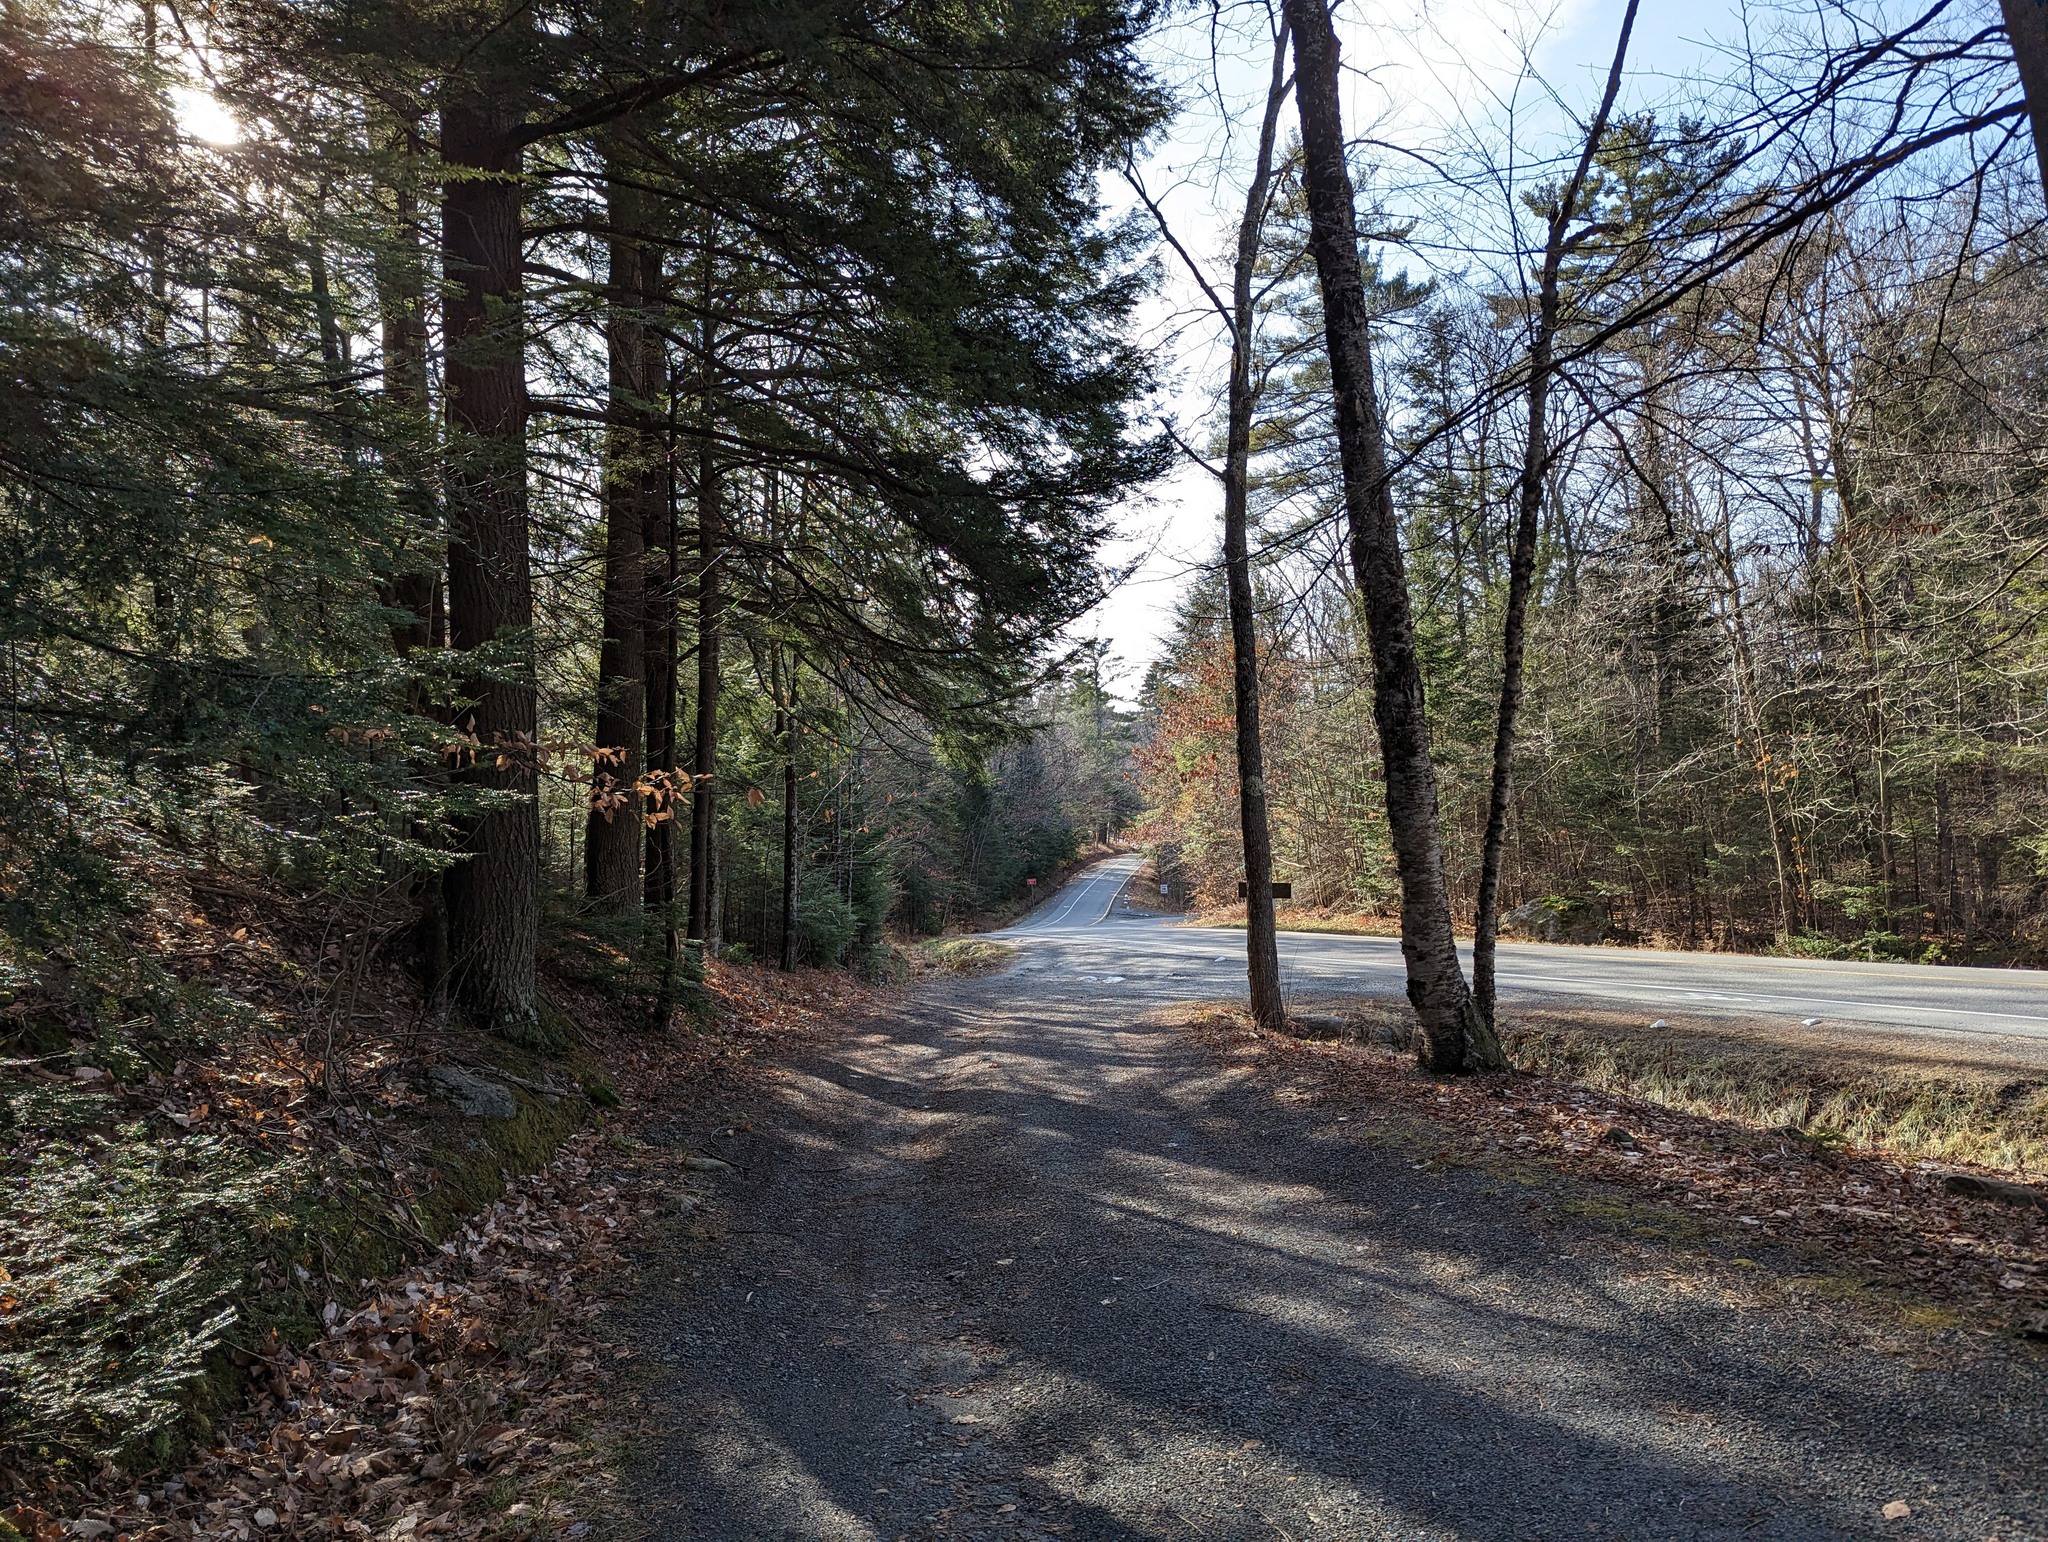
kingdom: Plantae
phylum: Tracheophyta
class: Pinopsida
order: Pinales
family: Pinaceae
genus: Tsuga
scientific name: Tsuga canadensis
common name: Eastern hemlock
